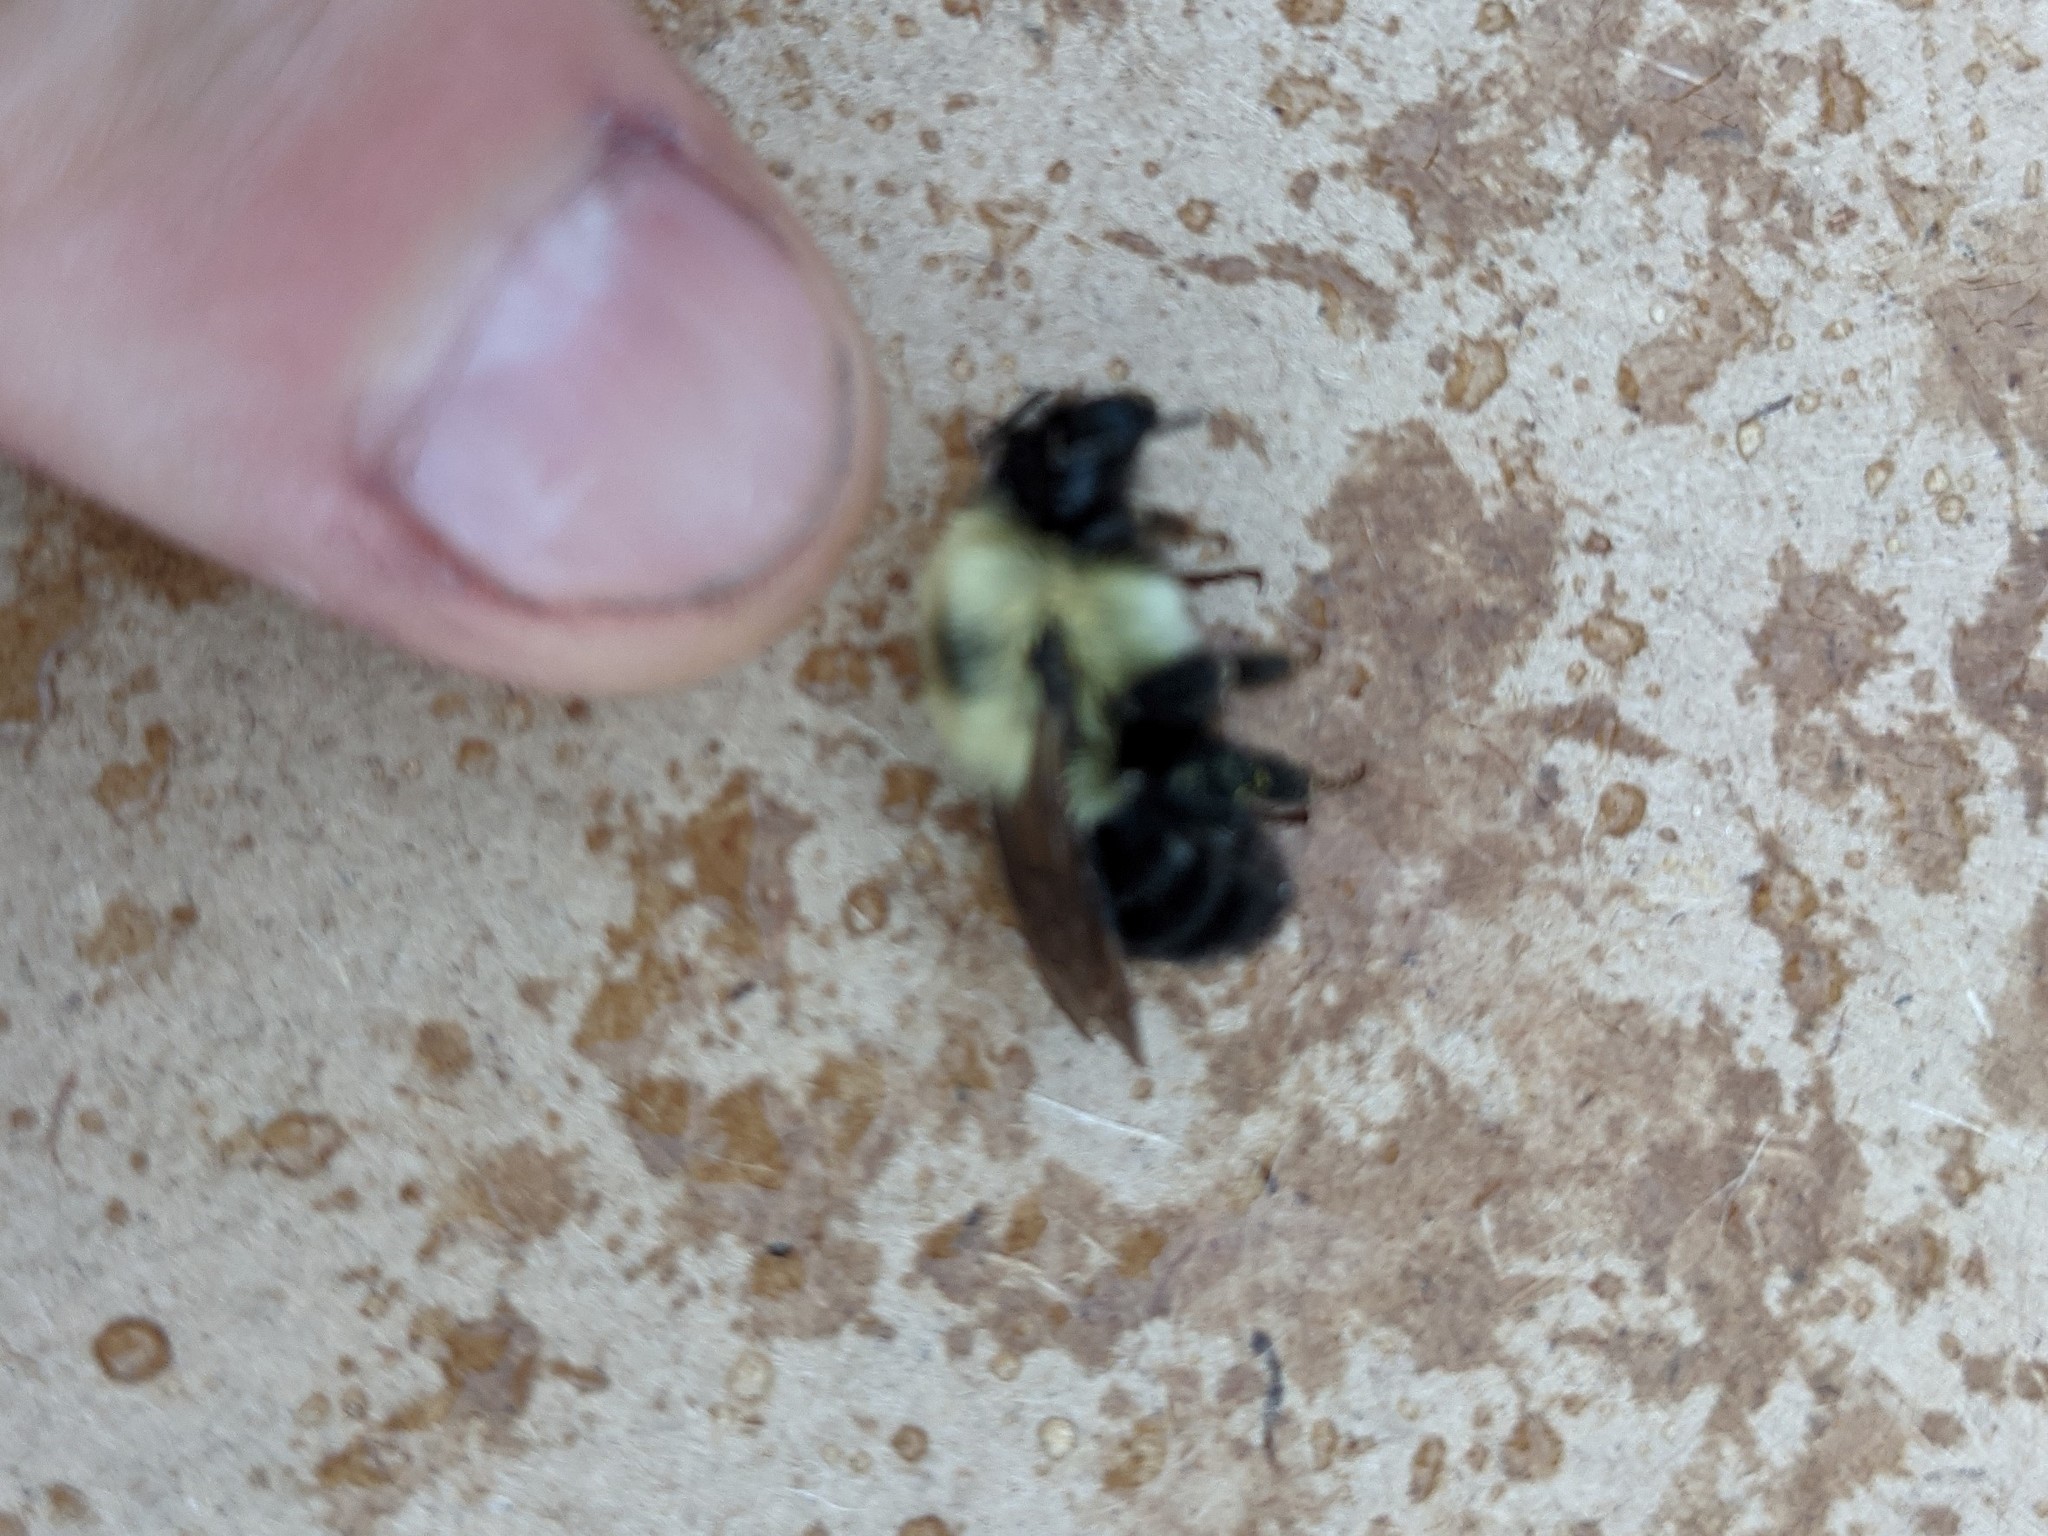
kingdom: Animalia
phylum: Arthropoda
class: Insecta
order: Hymenoptera
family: Apidae
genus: Bombus
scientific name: Bombus bimaculatus
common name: Two-spotted bumble bee
